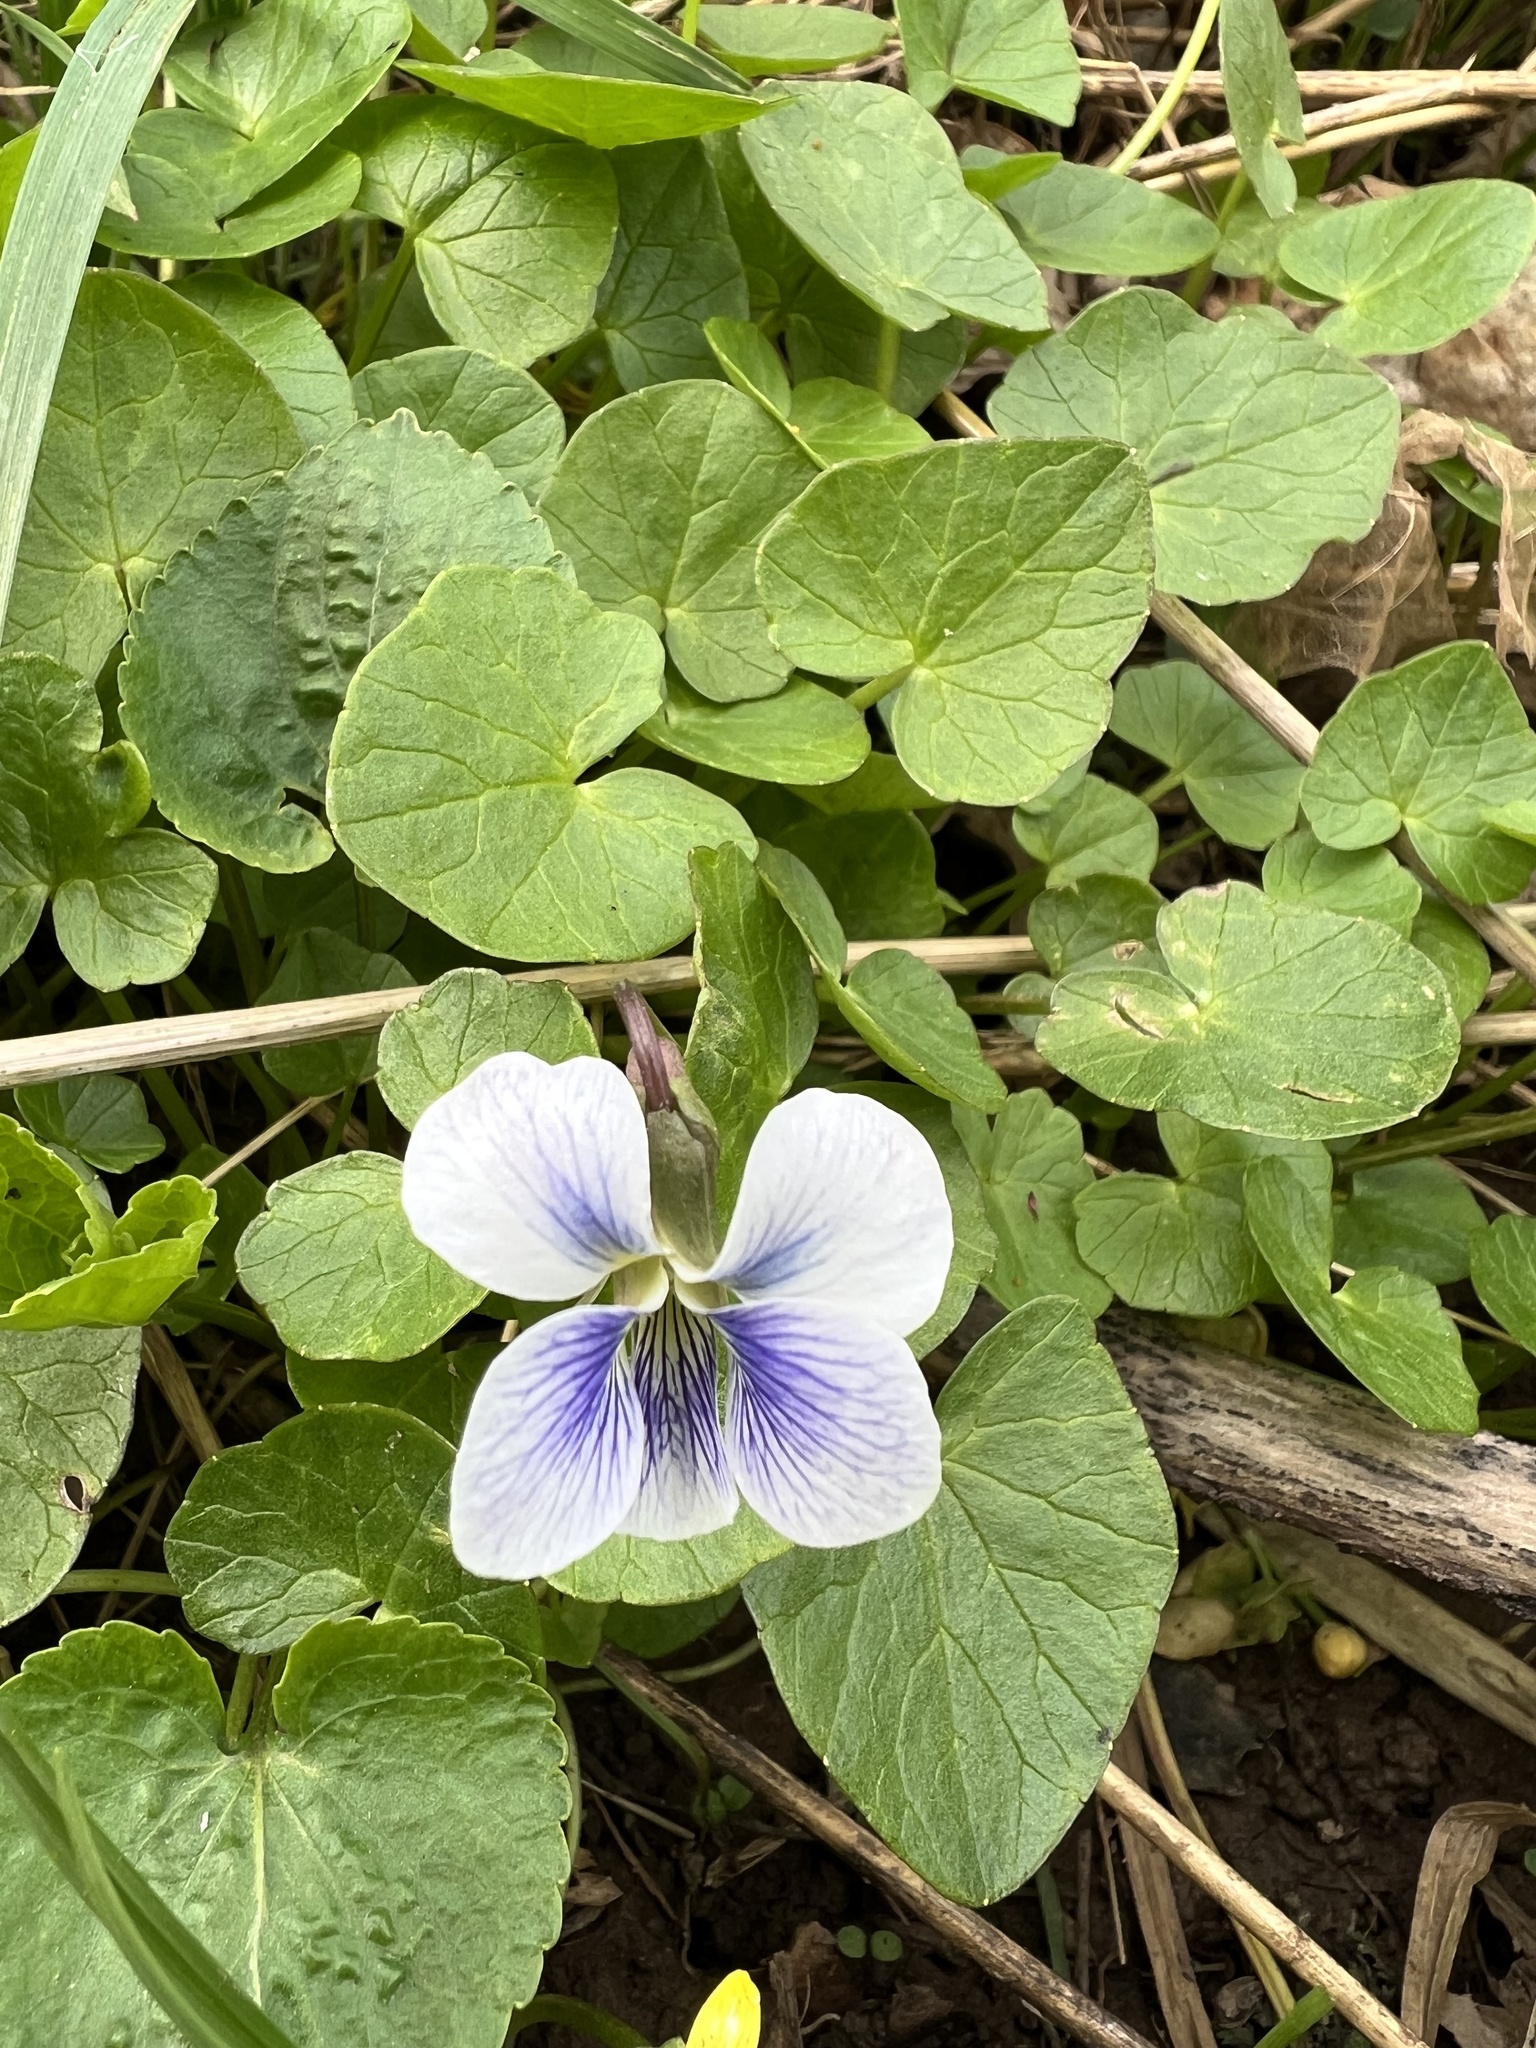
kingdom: Plantae
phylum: Tracheophyta
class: Magnoliopsida
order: Malpighiales
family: Violaceae
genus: Viola
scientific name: Viola sororia
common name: Dooryard violet
